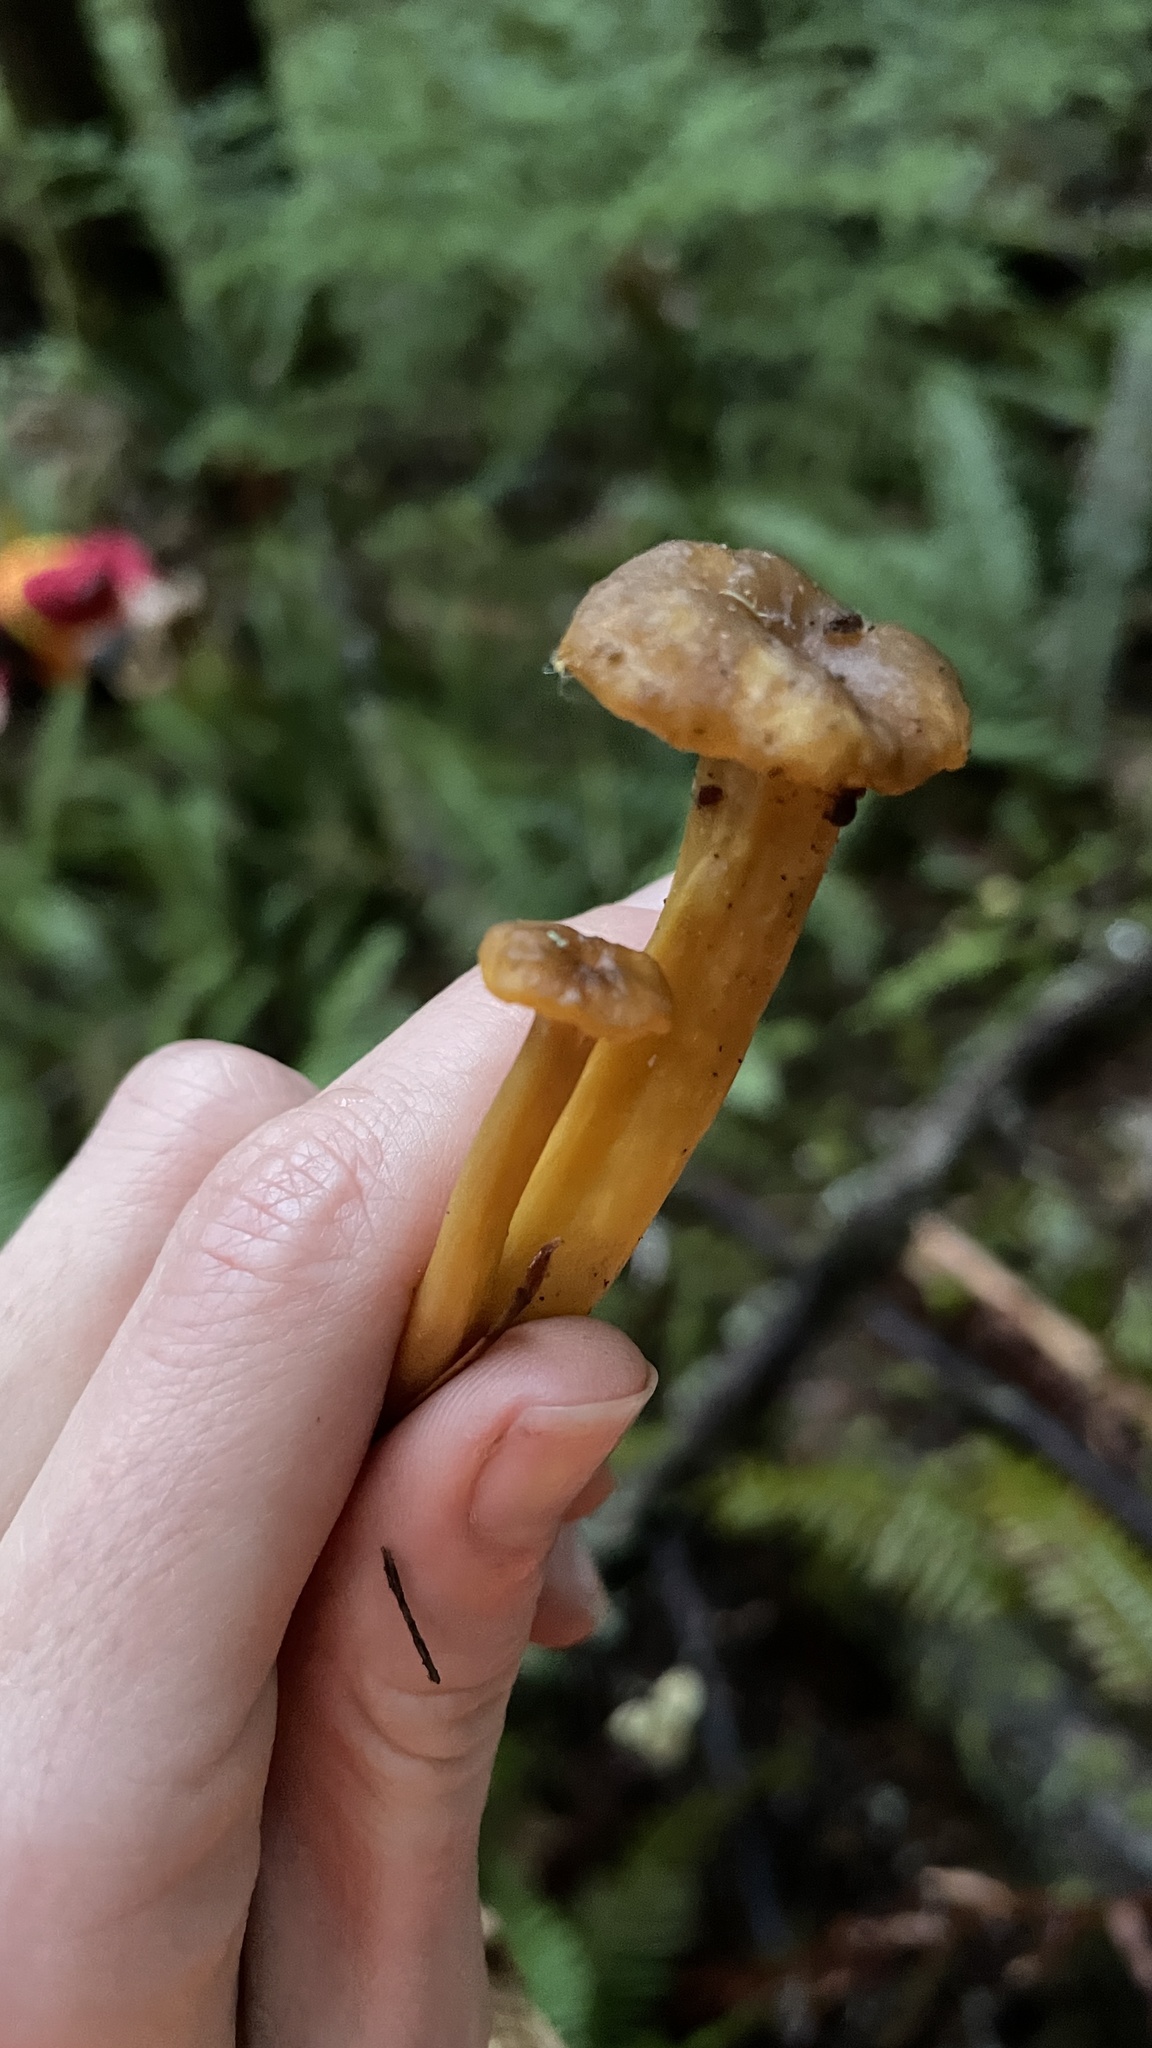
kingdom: Fungi
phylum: Basidiomycota
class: Agaricomycetes
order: Cantharellales
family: Hydnaceae
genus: Craterellus
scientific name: Craterellus tubaeformis
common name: Yellowfoot
